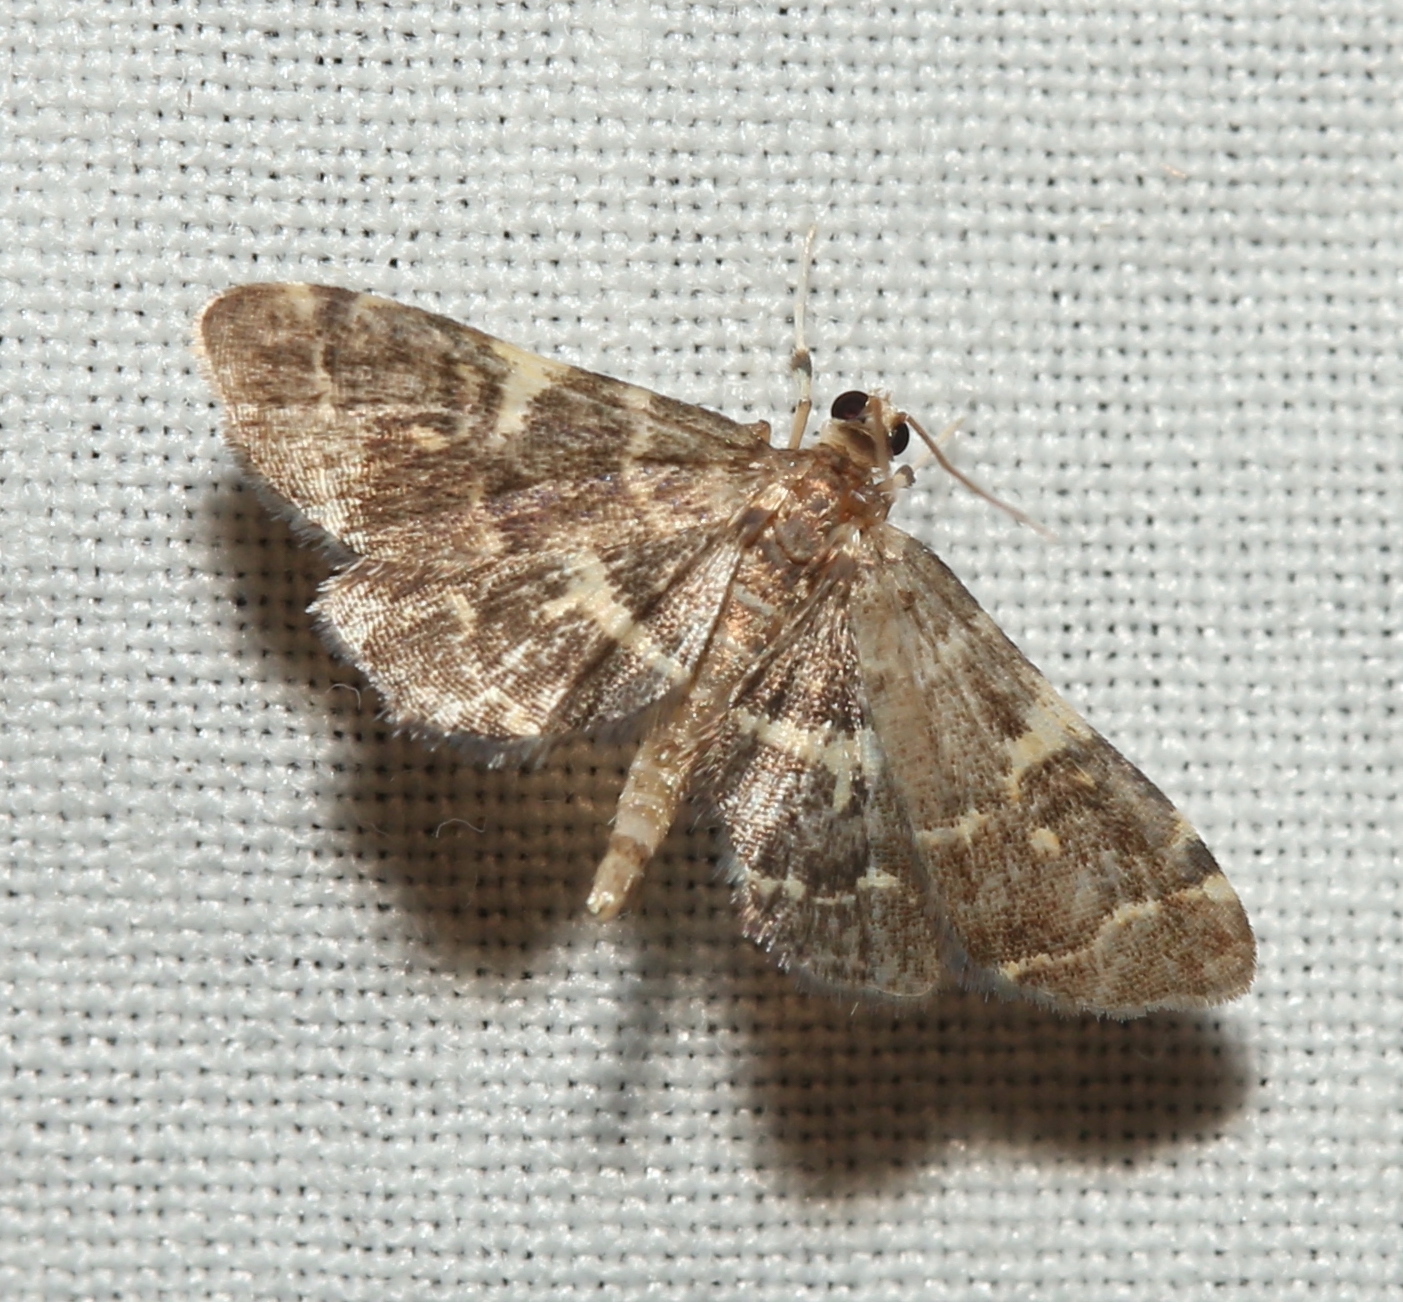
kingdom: Animalia
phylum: Arthropoda
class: Insecta
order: Lepidoptera
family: Crambidae
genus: Anageshna
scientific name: Anageshna primordialis
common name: Yellow-spotted webworm moth
